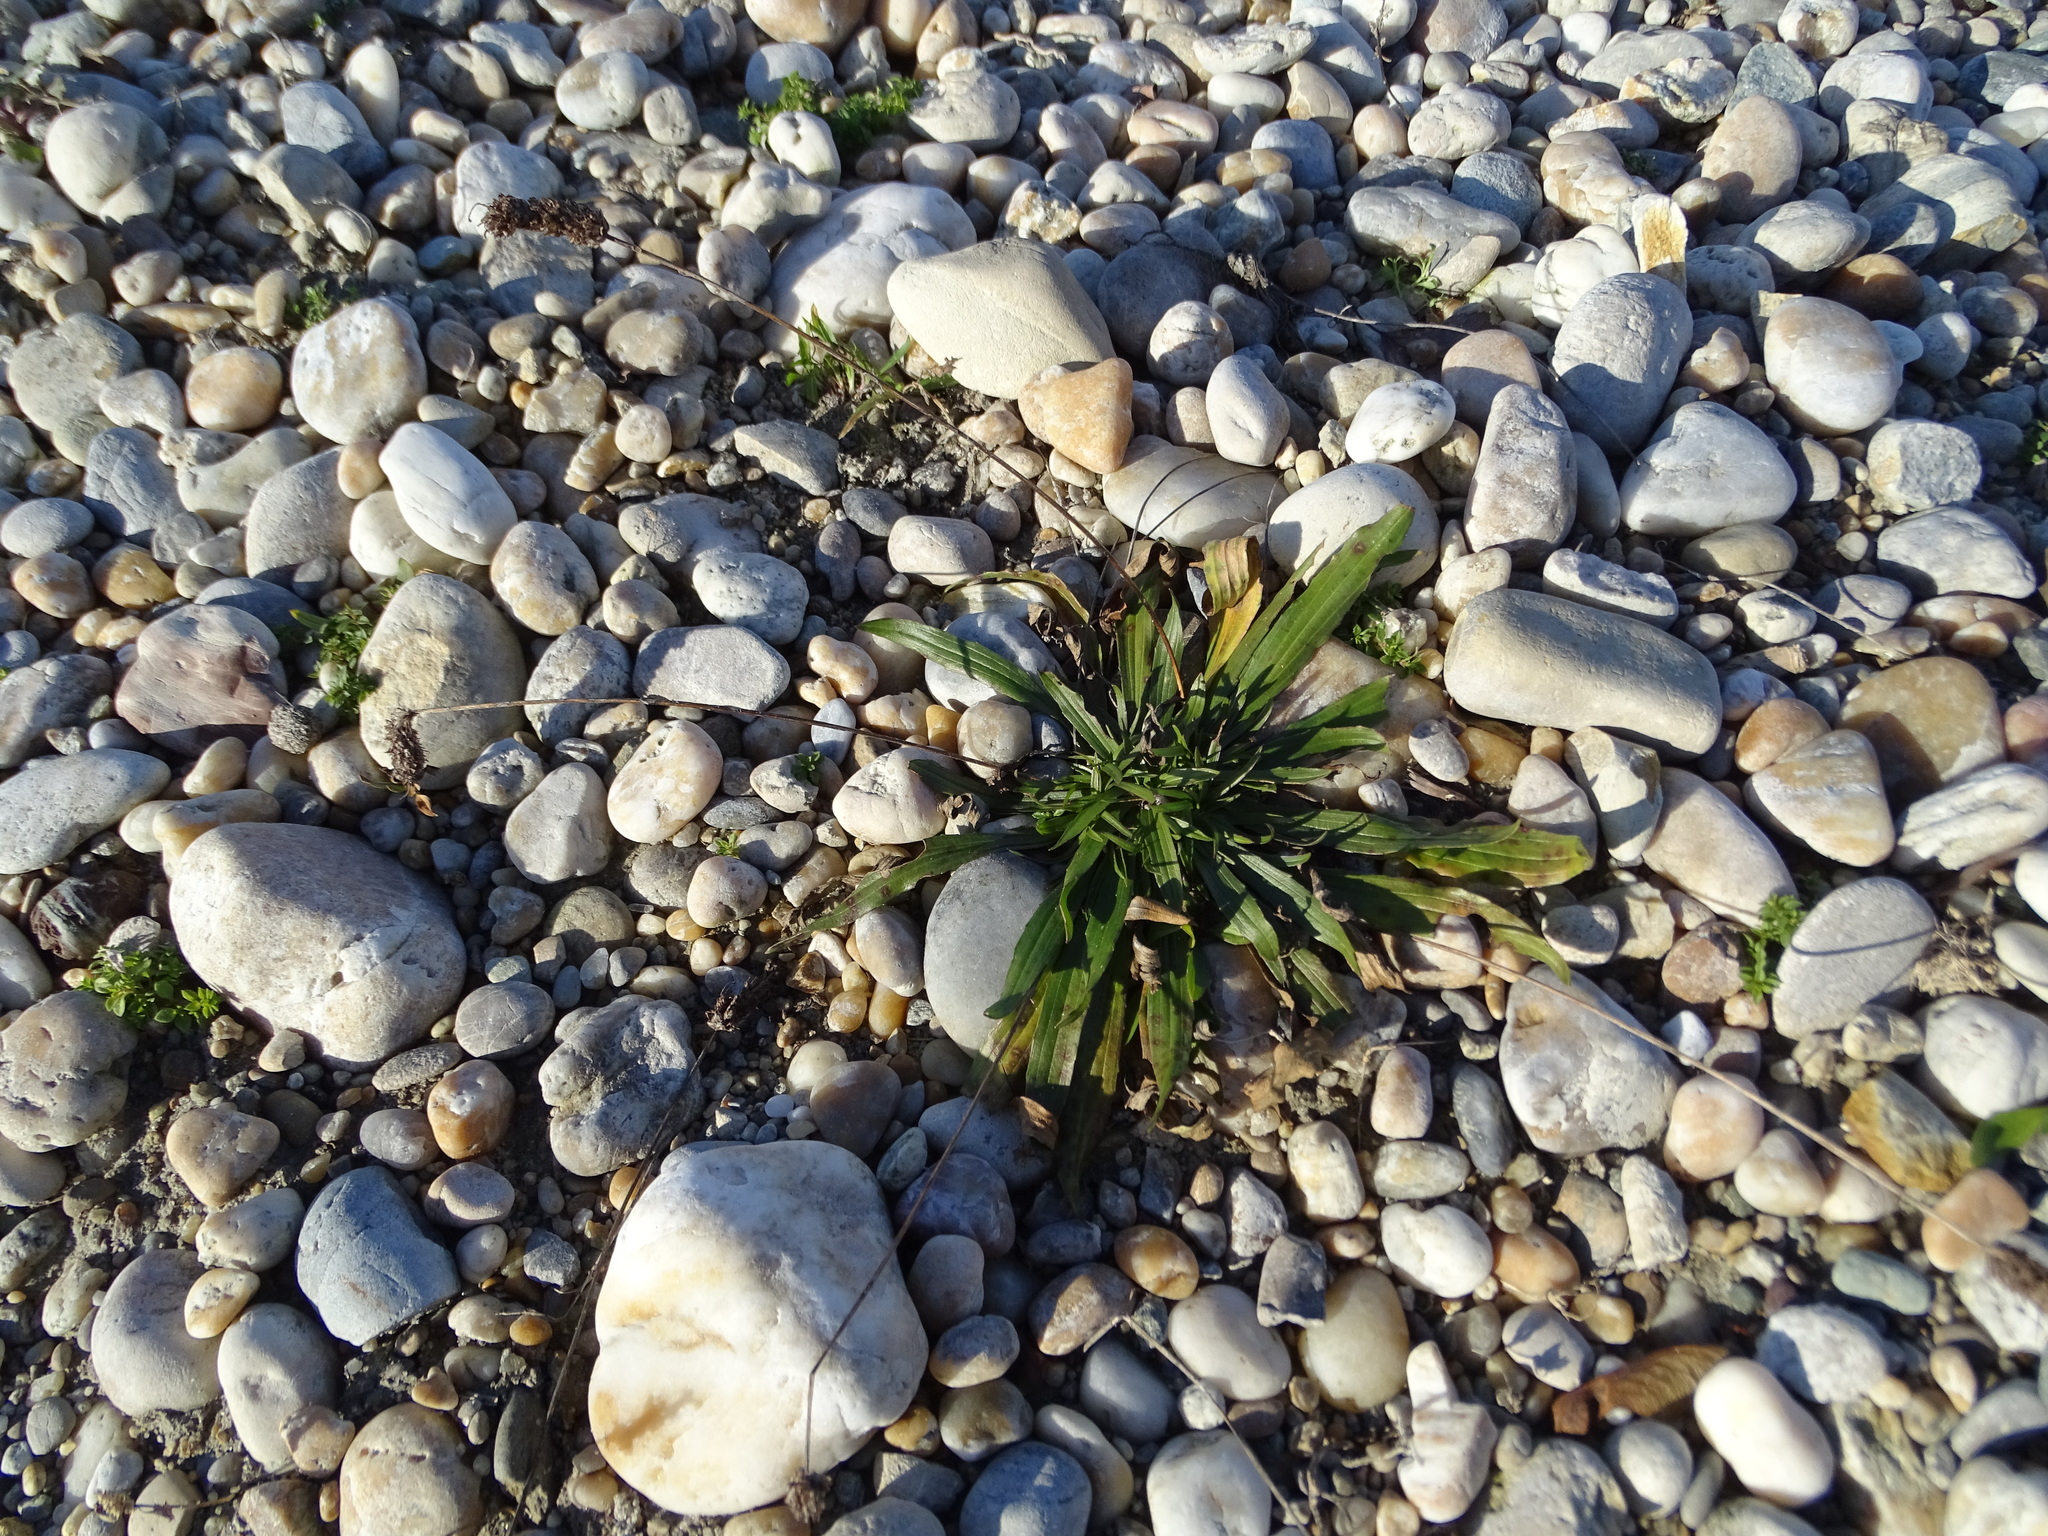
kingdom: Plantae
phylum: Tracheophyta
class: Magnoliopsida
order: Lamiales
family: Plantaginaceae
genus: Plantago
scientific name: Plantago lanceolata
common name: Ribwort plantain
